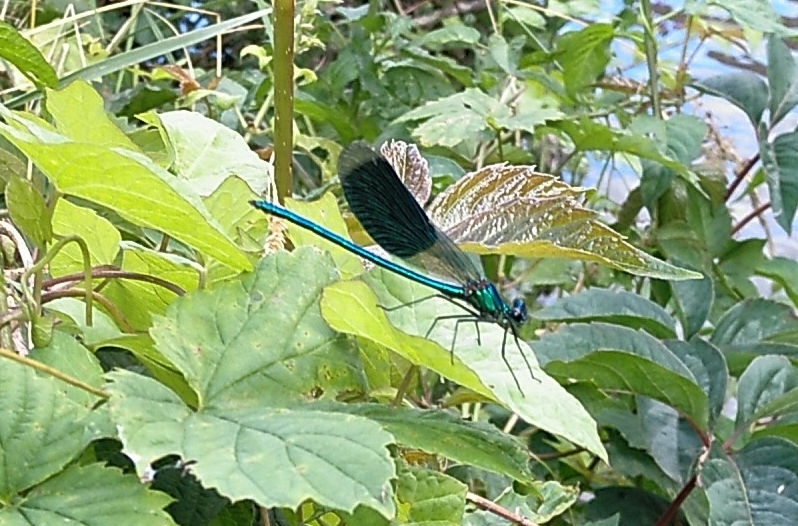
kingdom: Animalia
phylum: Arthropoda
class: Insecta
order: Odonata
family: Calopterygidae
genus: Calopteryx
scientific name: Calopteryx splendens
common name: Banded demoiselle
